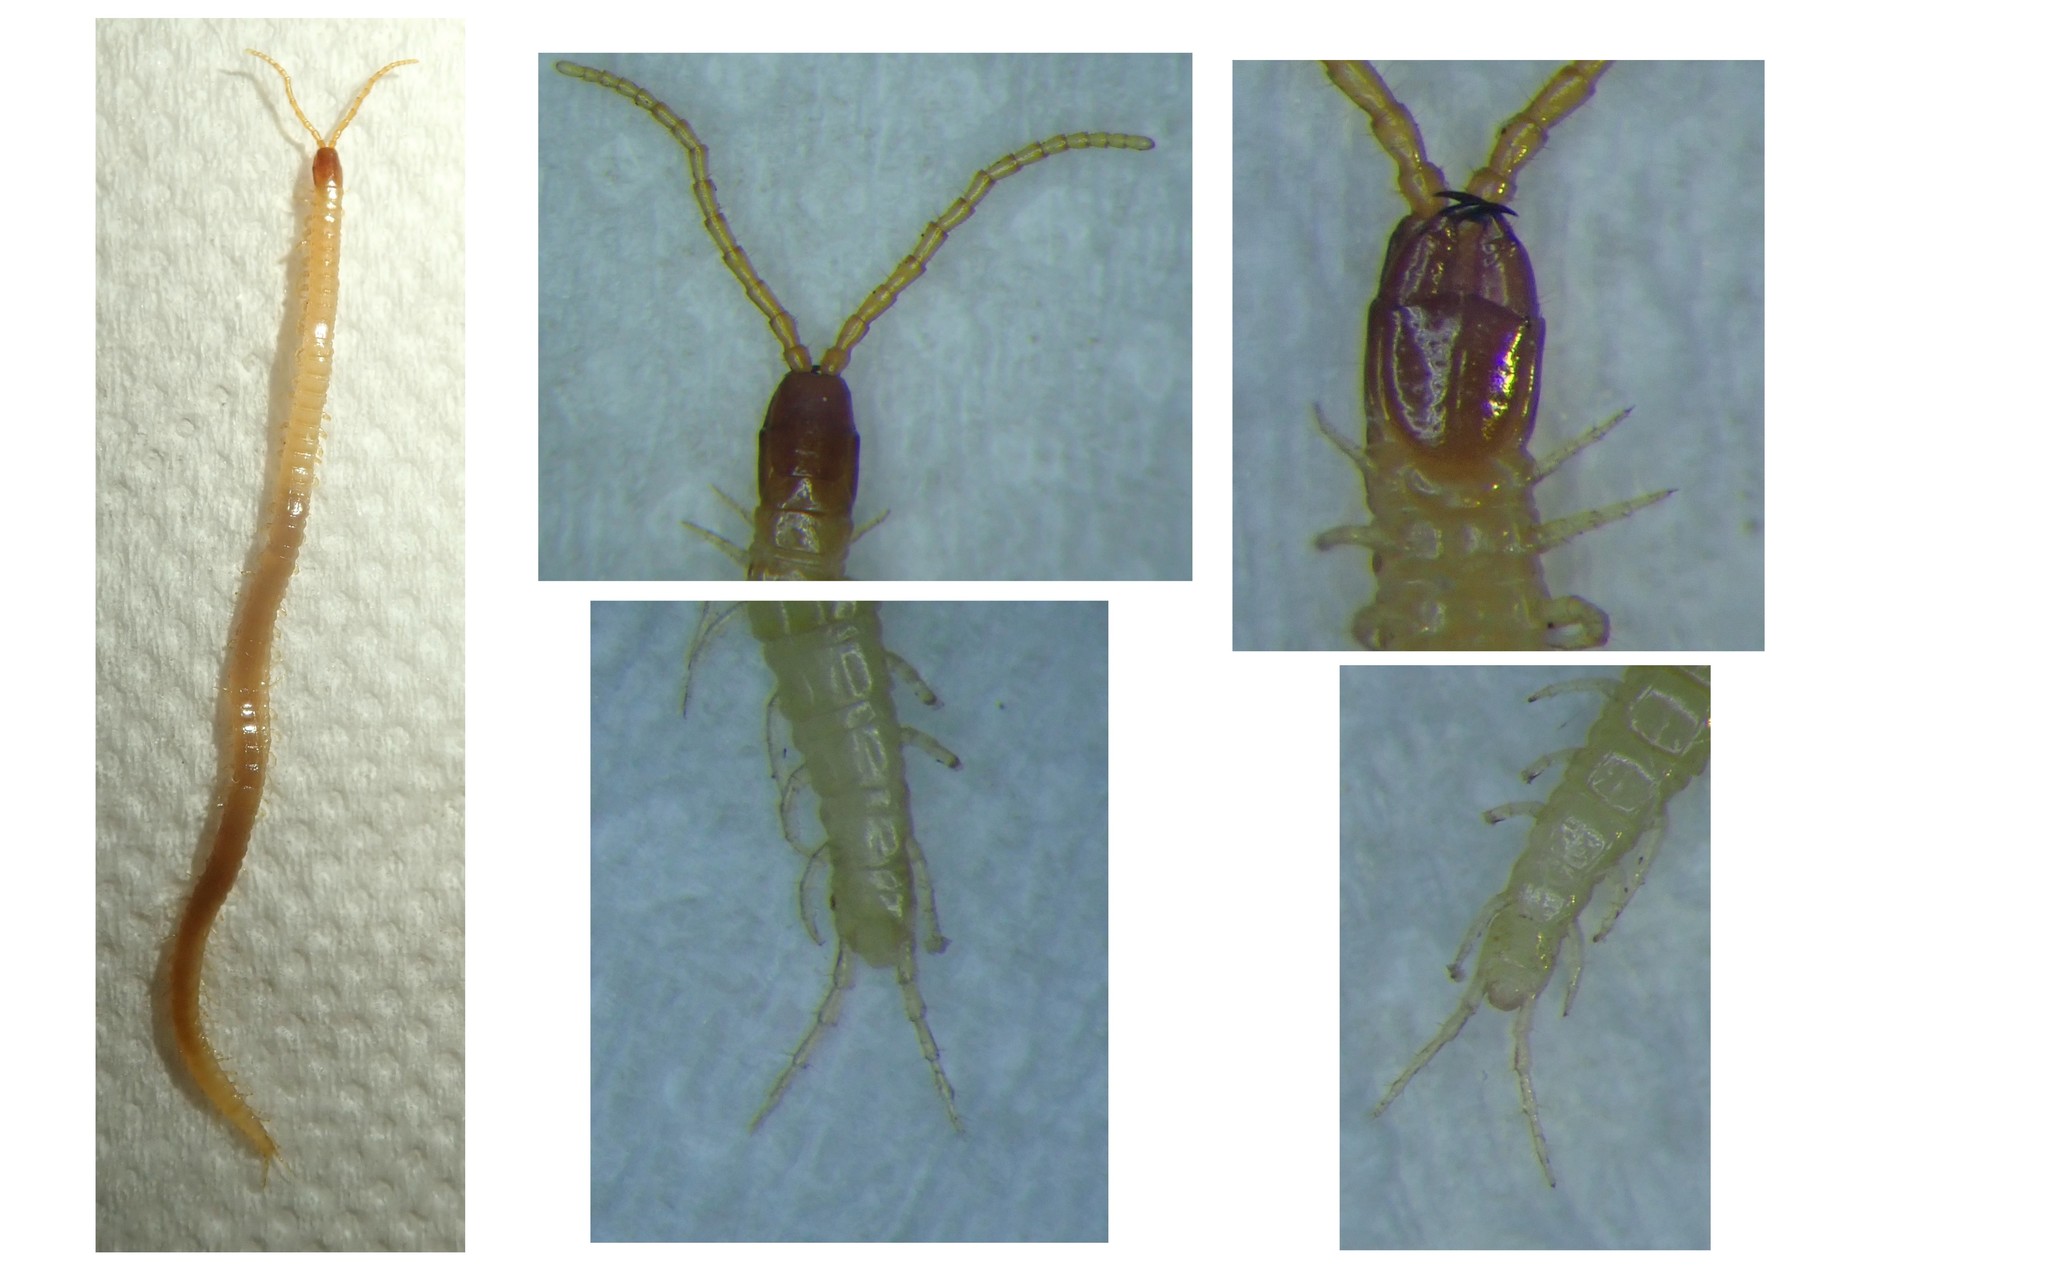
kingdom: Animalia
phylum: Arthropoda
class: Chilopoda
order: Geophilomorpha
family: Geophilidae
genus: Geophilus
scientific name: Geophilus flavus
